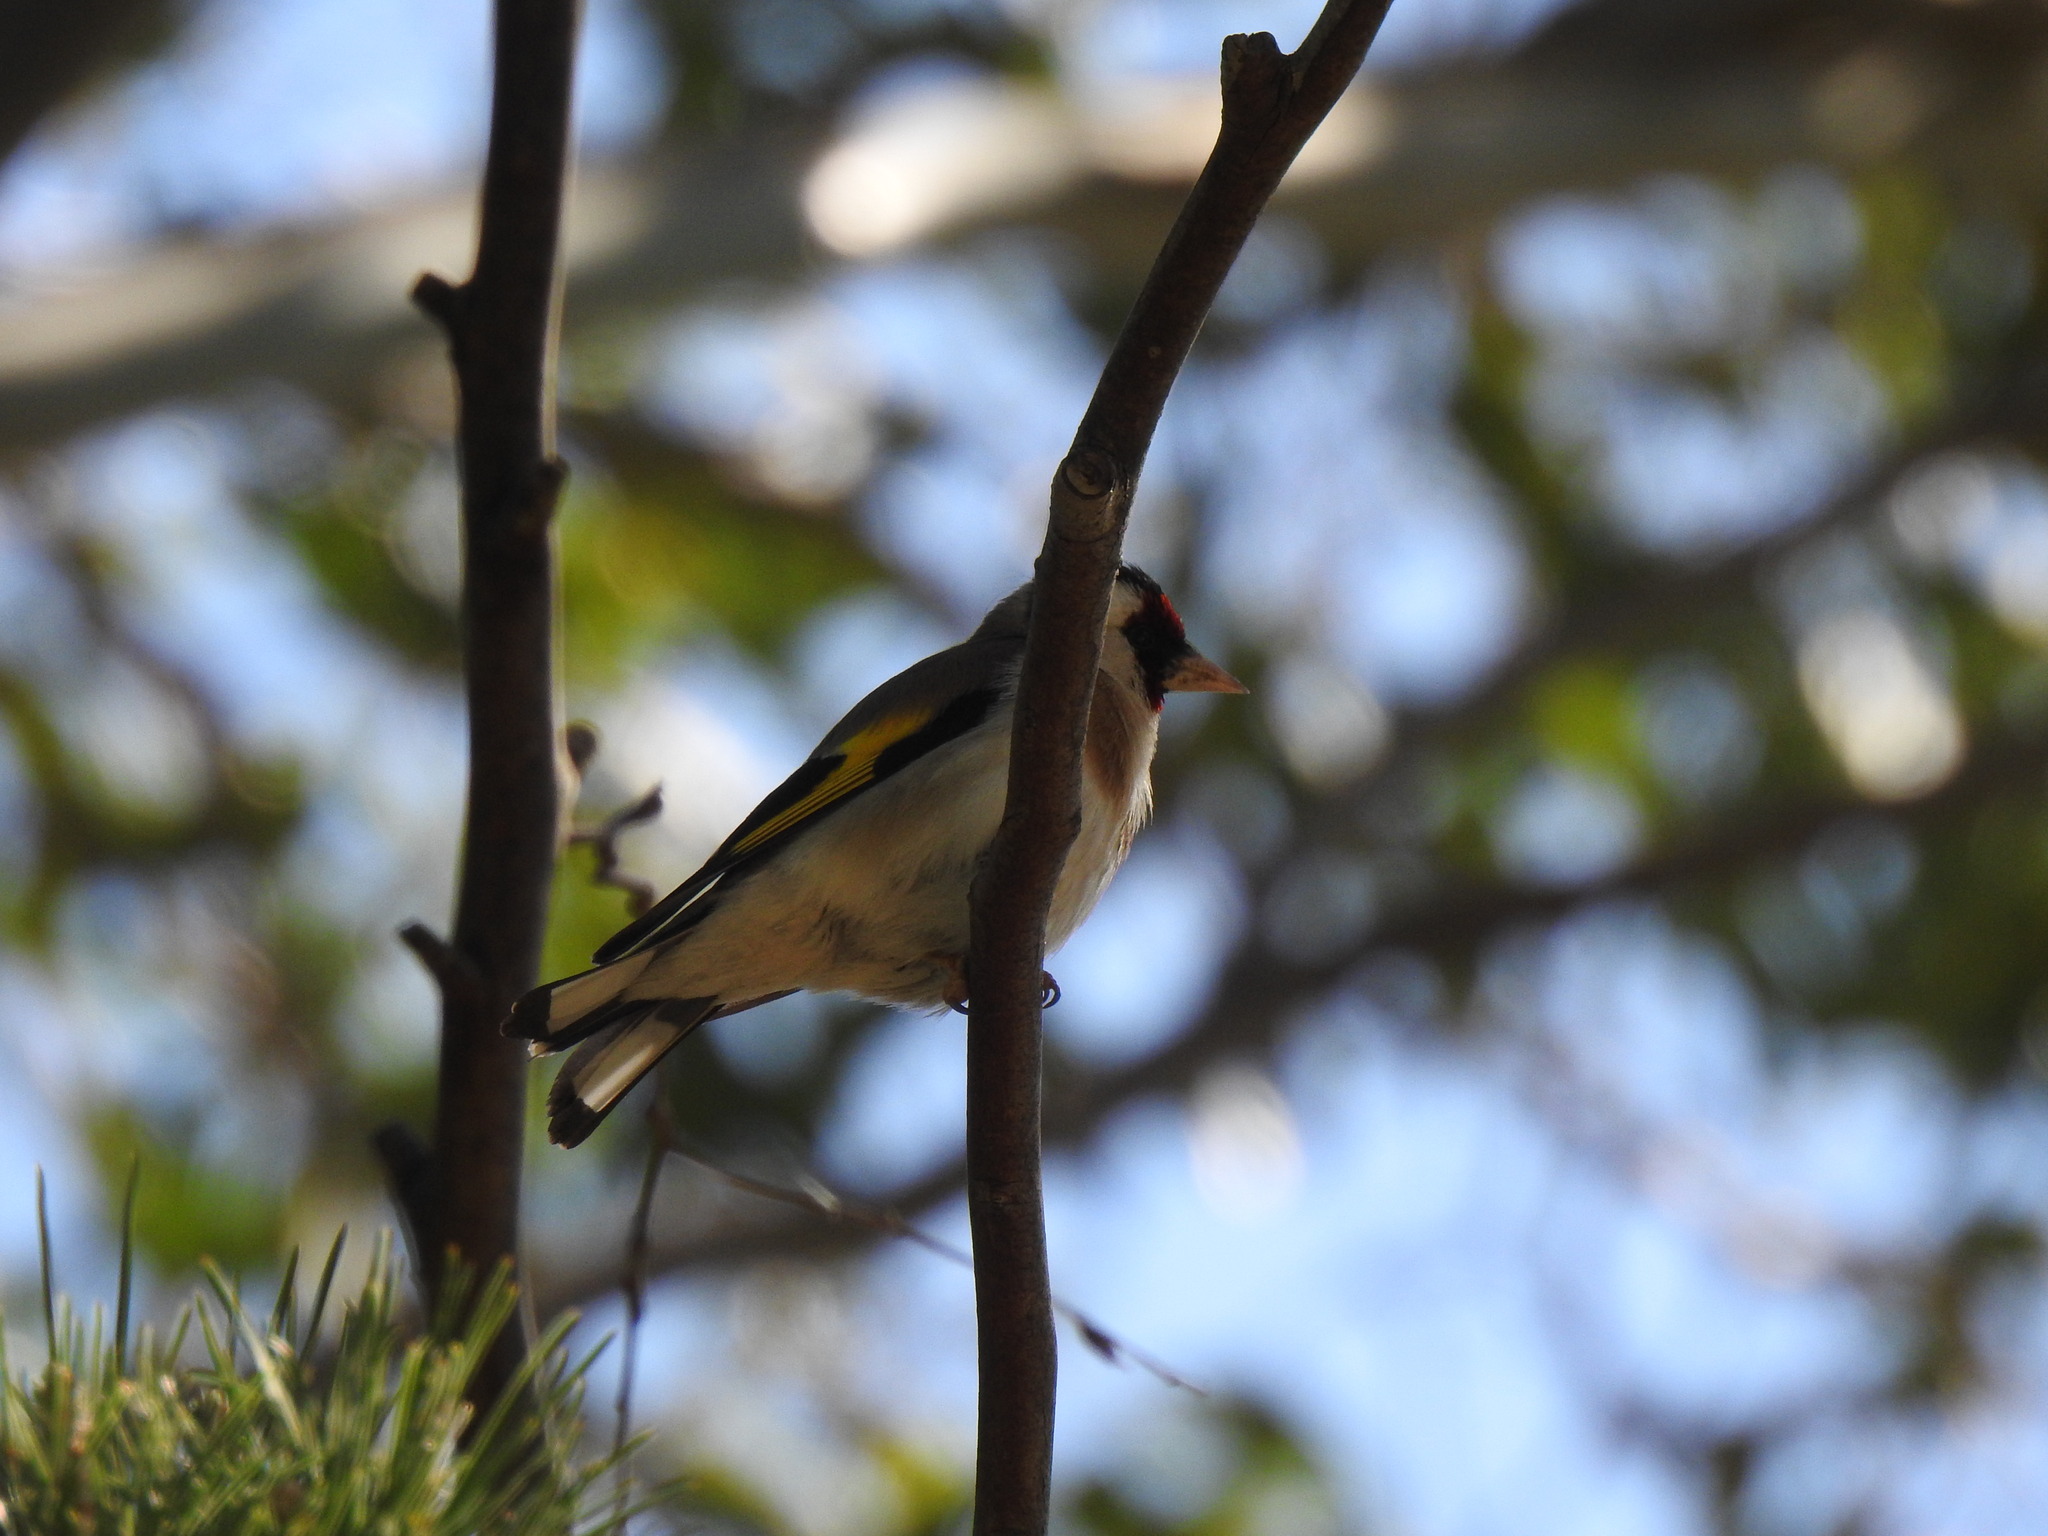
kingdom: Animalia
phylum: Chordata
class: Aves
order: Passeriformes
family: Fringillidae
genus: Carduelis
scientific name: Carduelis carduelis
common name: European goldfinch
